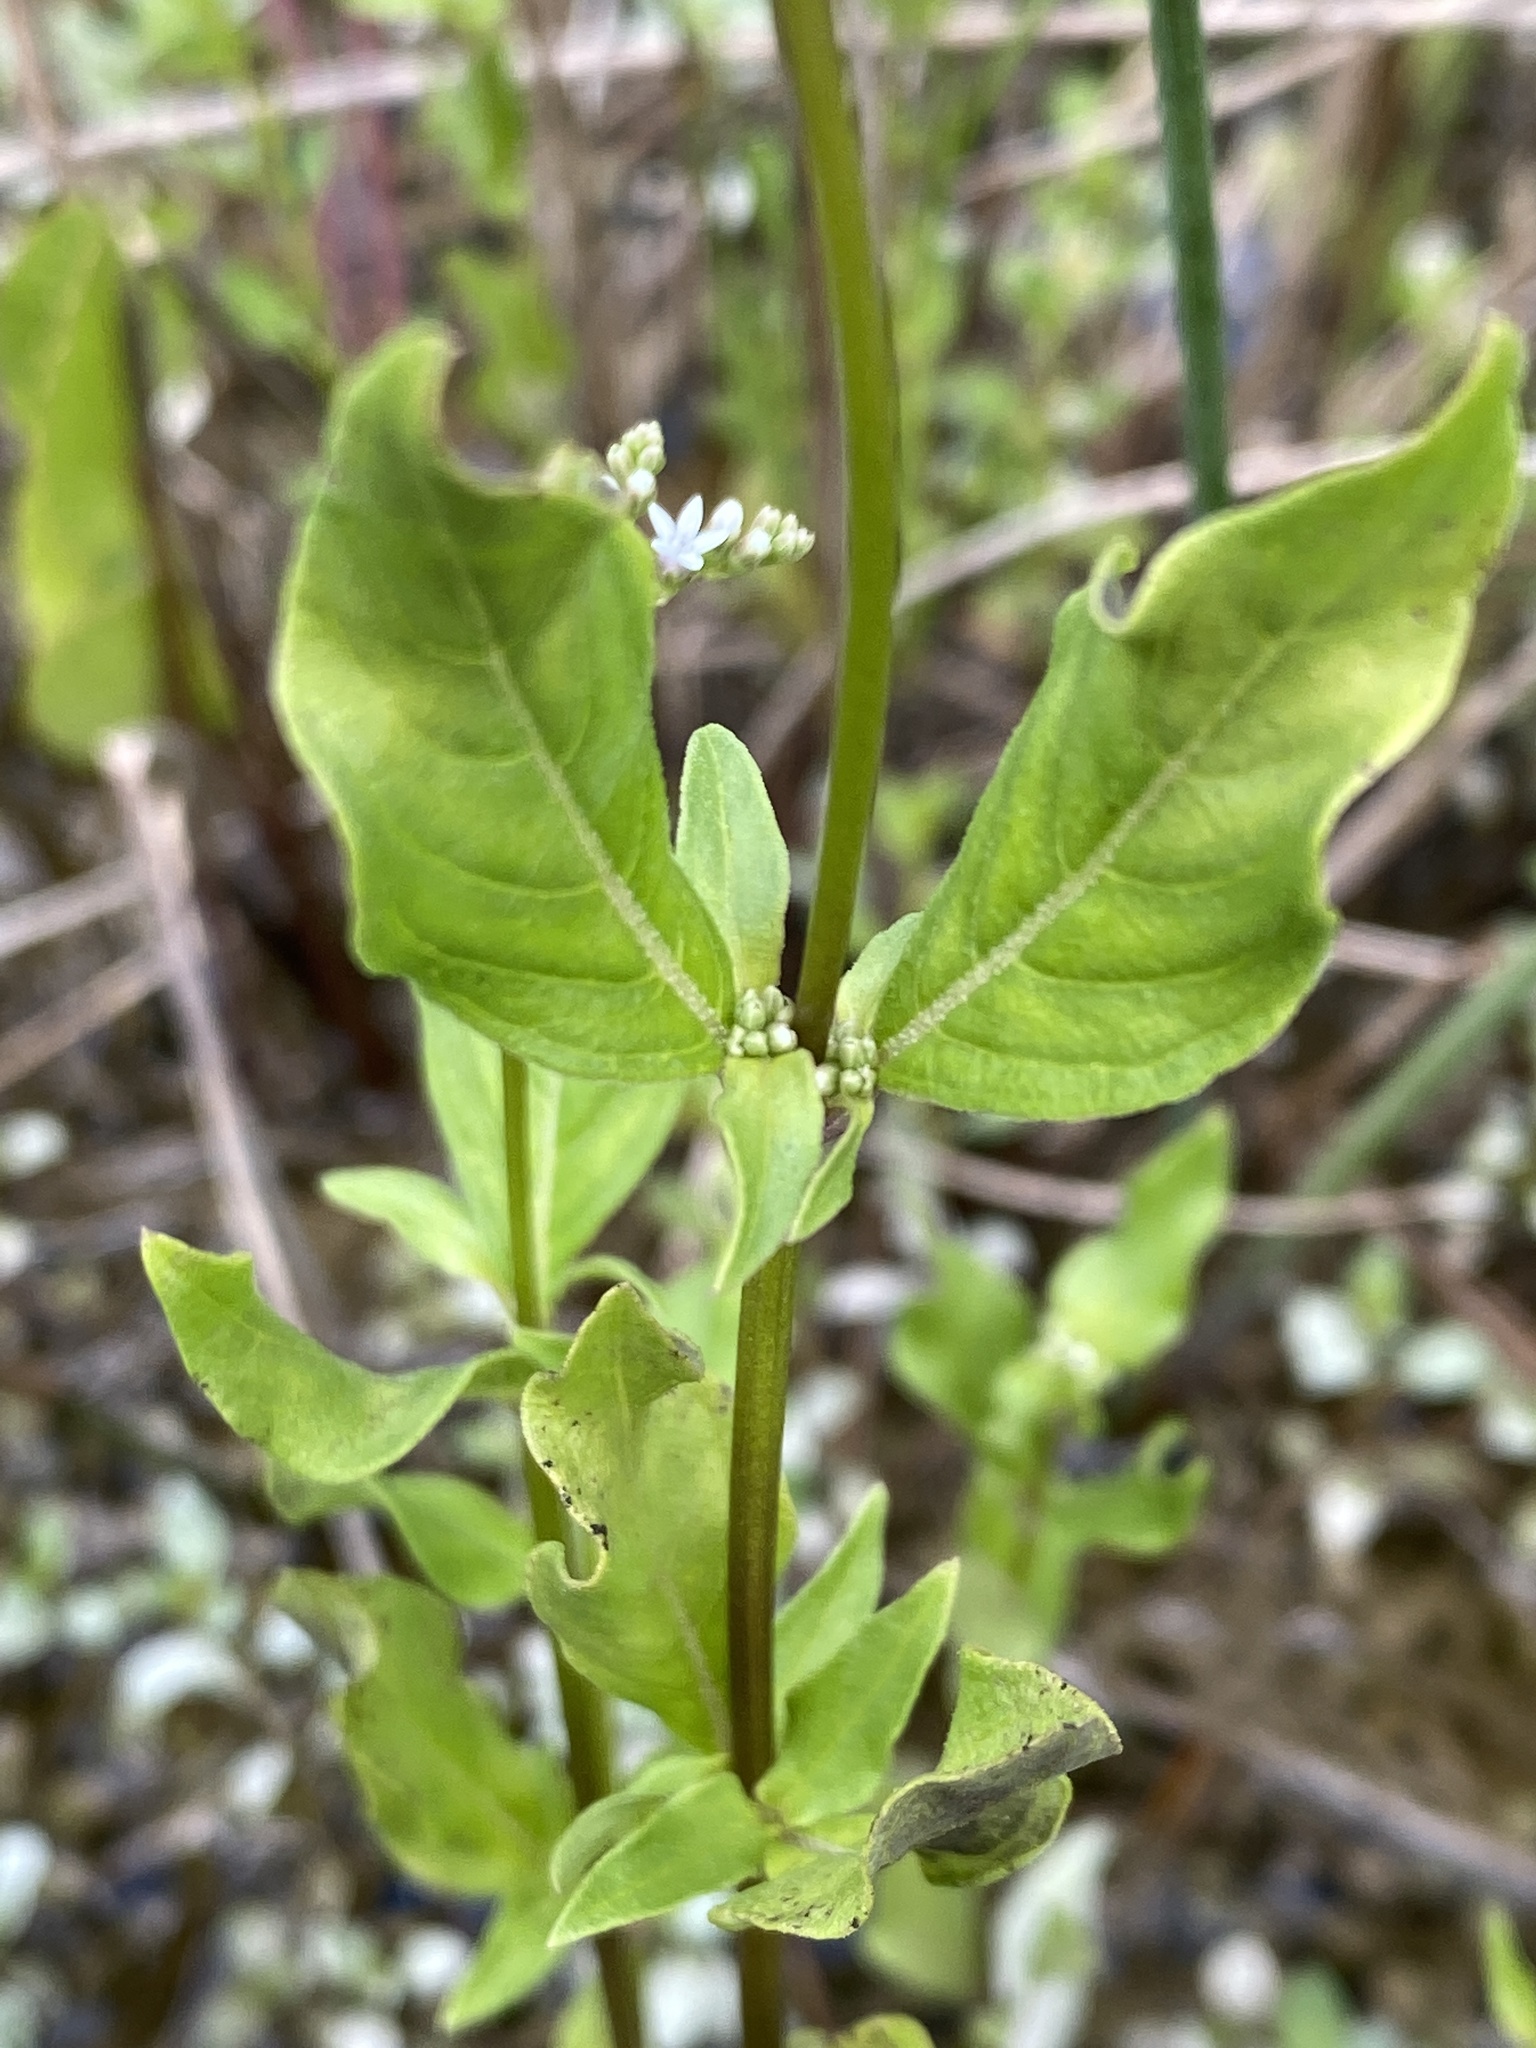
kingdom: Plantae
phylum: Tracheophyta
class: Magnoliopsida
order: Gentianales
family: Loganiaceae
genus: Mitreola
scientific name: Mitreola sessilifolia
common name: Swamp hornpod
